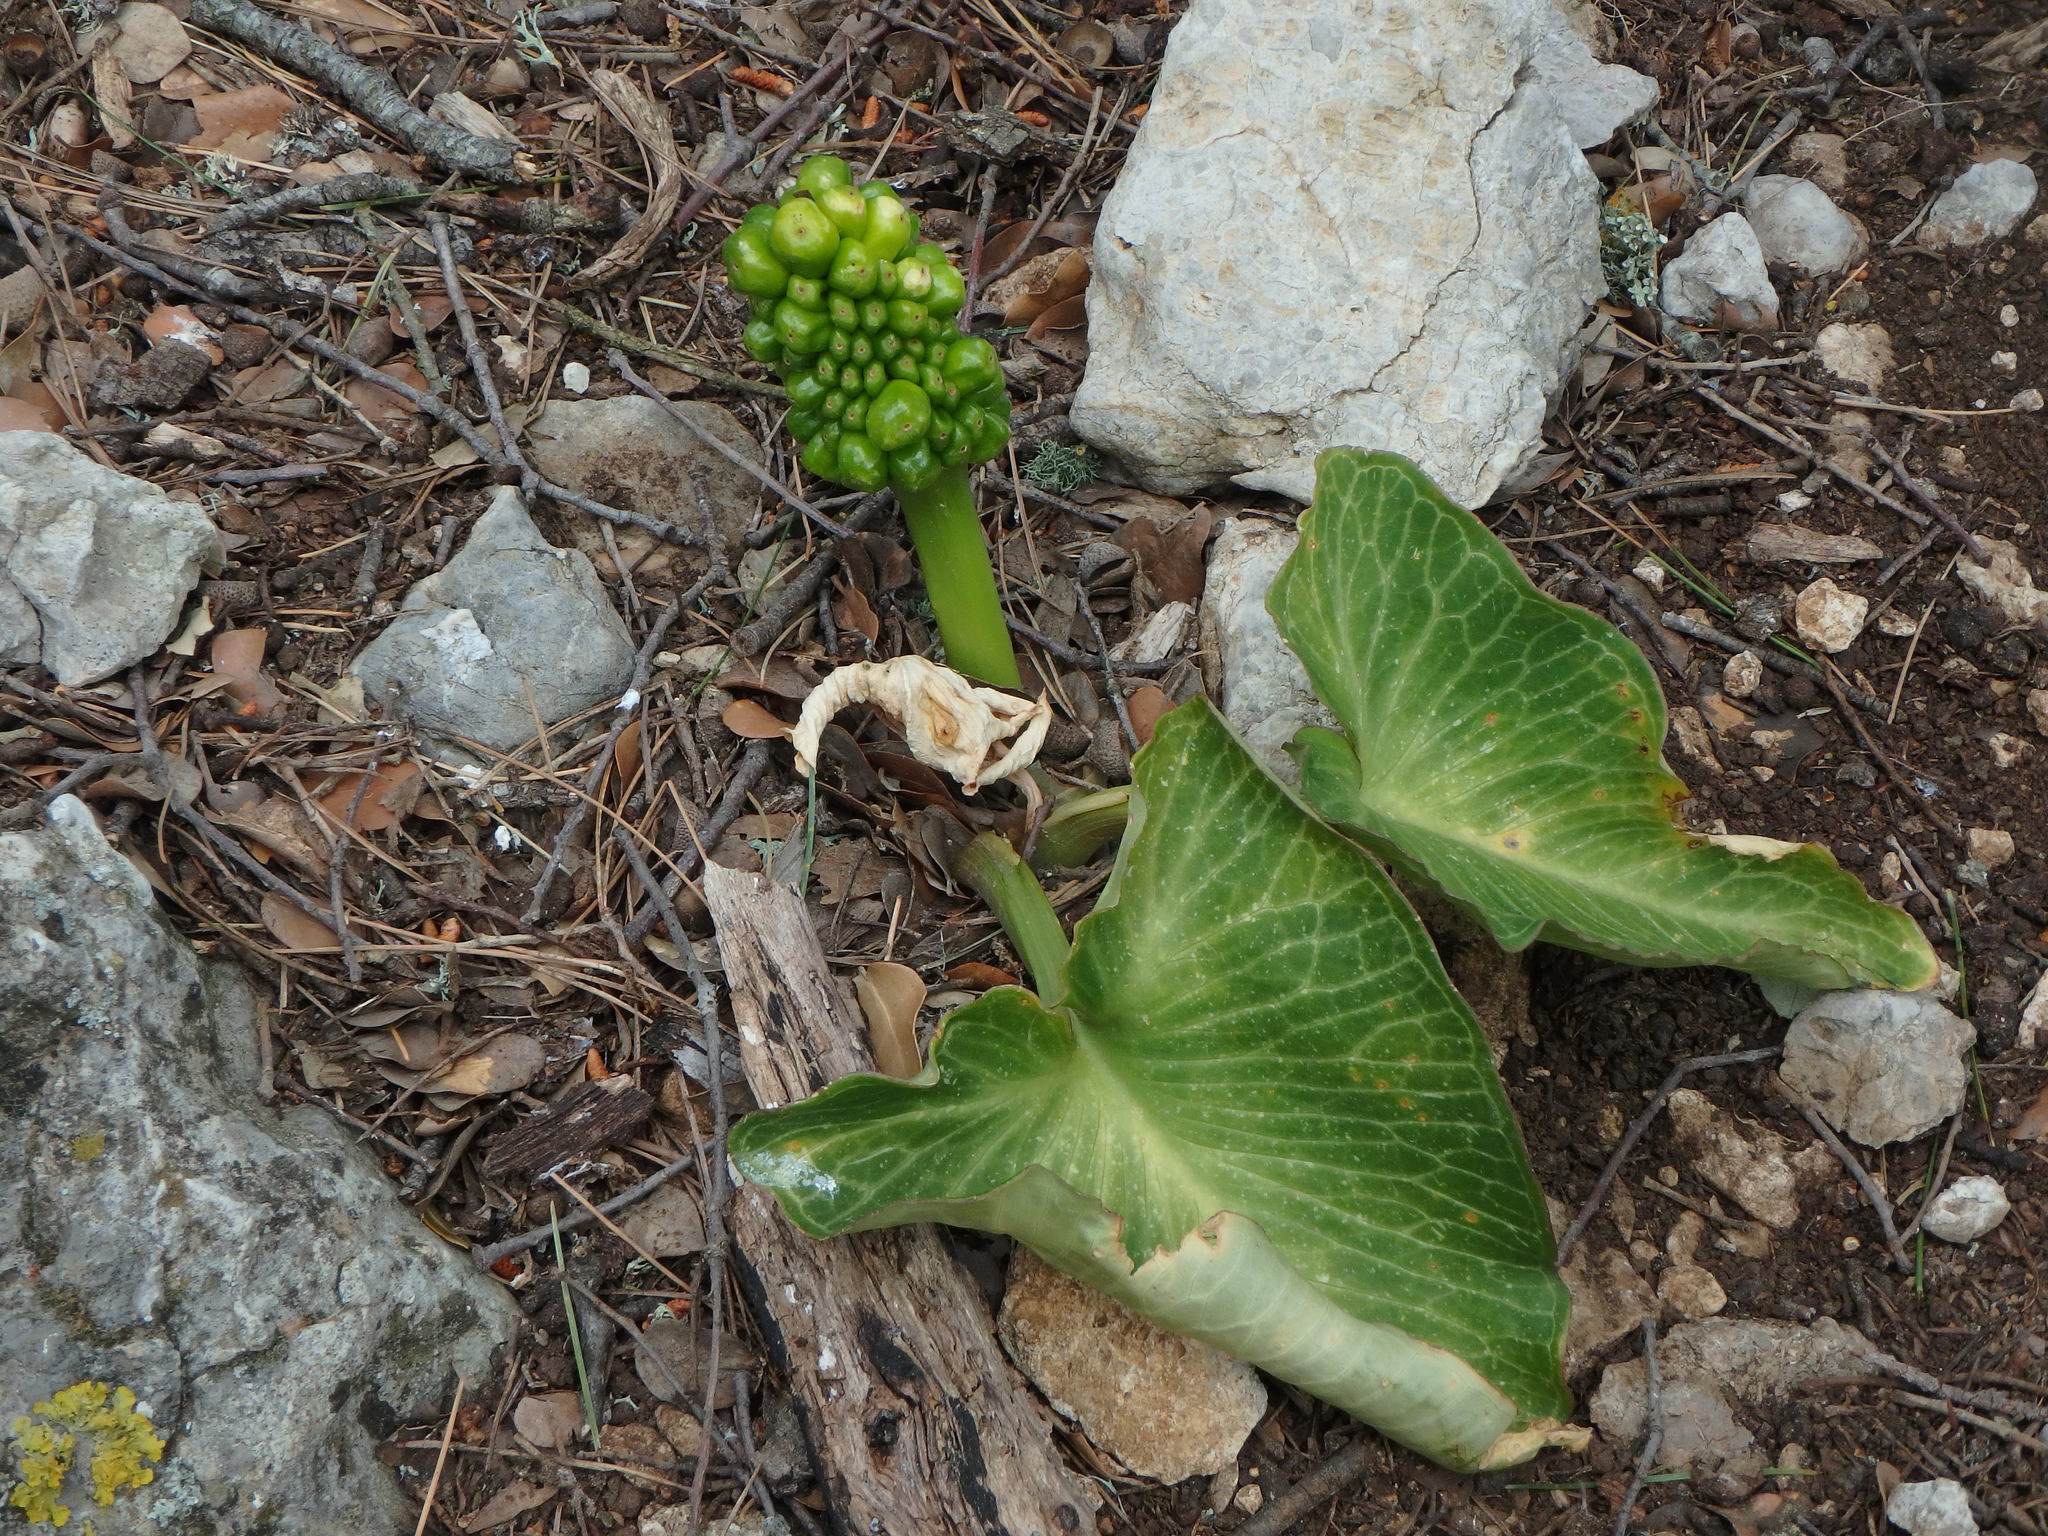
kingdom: Plantae
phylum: Tracheophyta
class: Liliopsida
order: Alismatales
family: Araceae
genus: Arum
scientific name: Arum pictum
